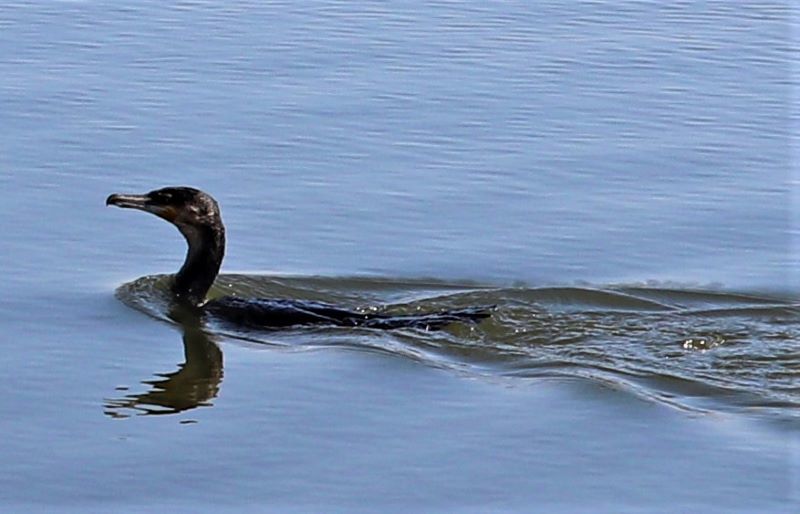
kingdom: Animalia
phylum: Chordata
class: Aves
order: Suliformes
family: Phalacrocoracidae
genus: Phalacrocorax
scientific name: Phalacrocorax carbo
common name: Great cormorant
